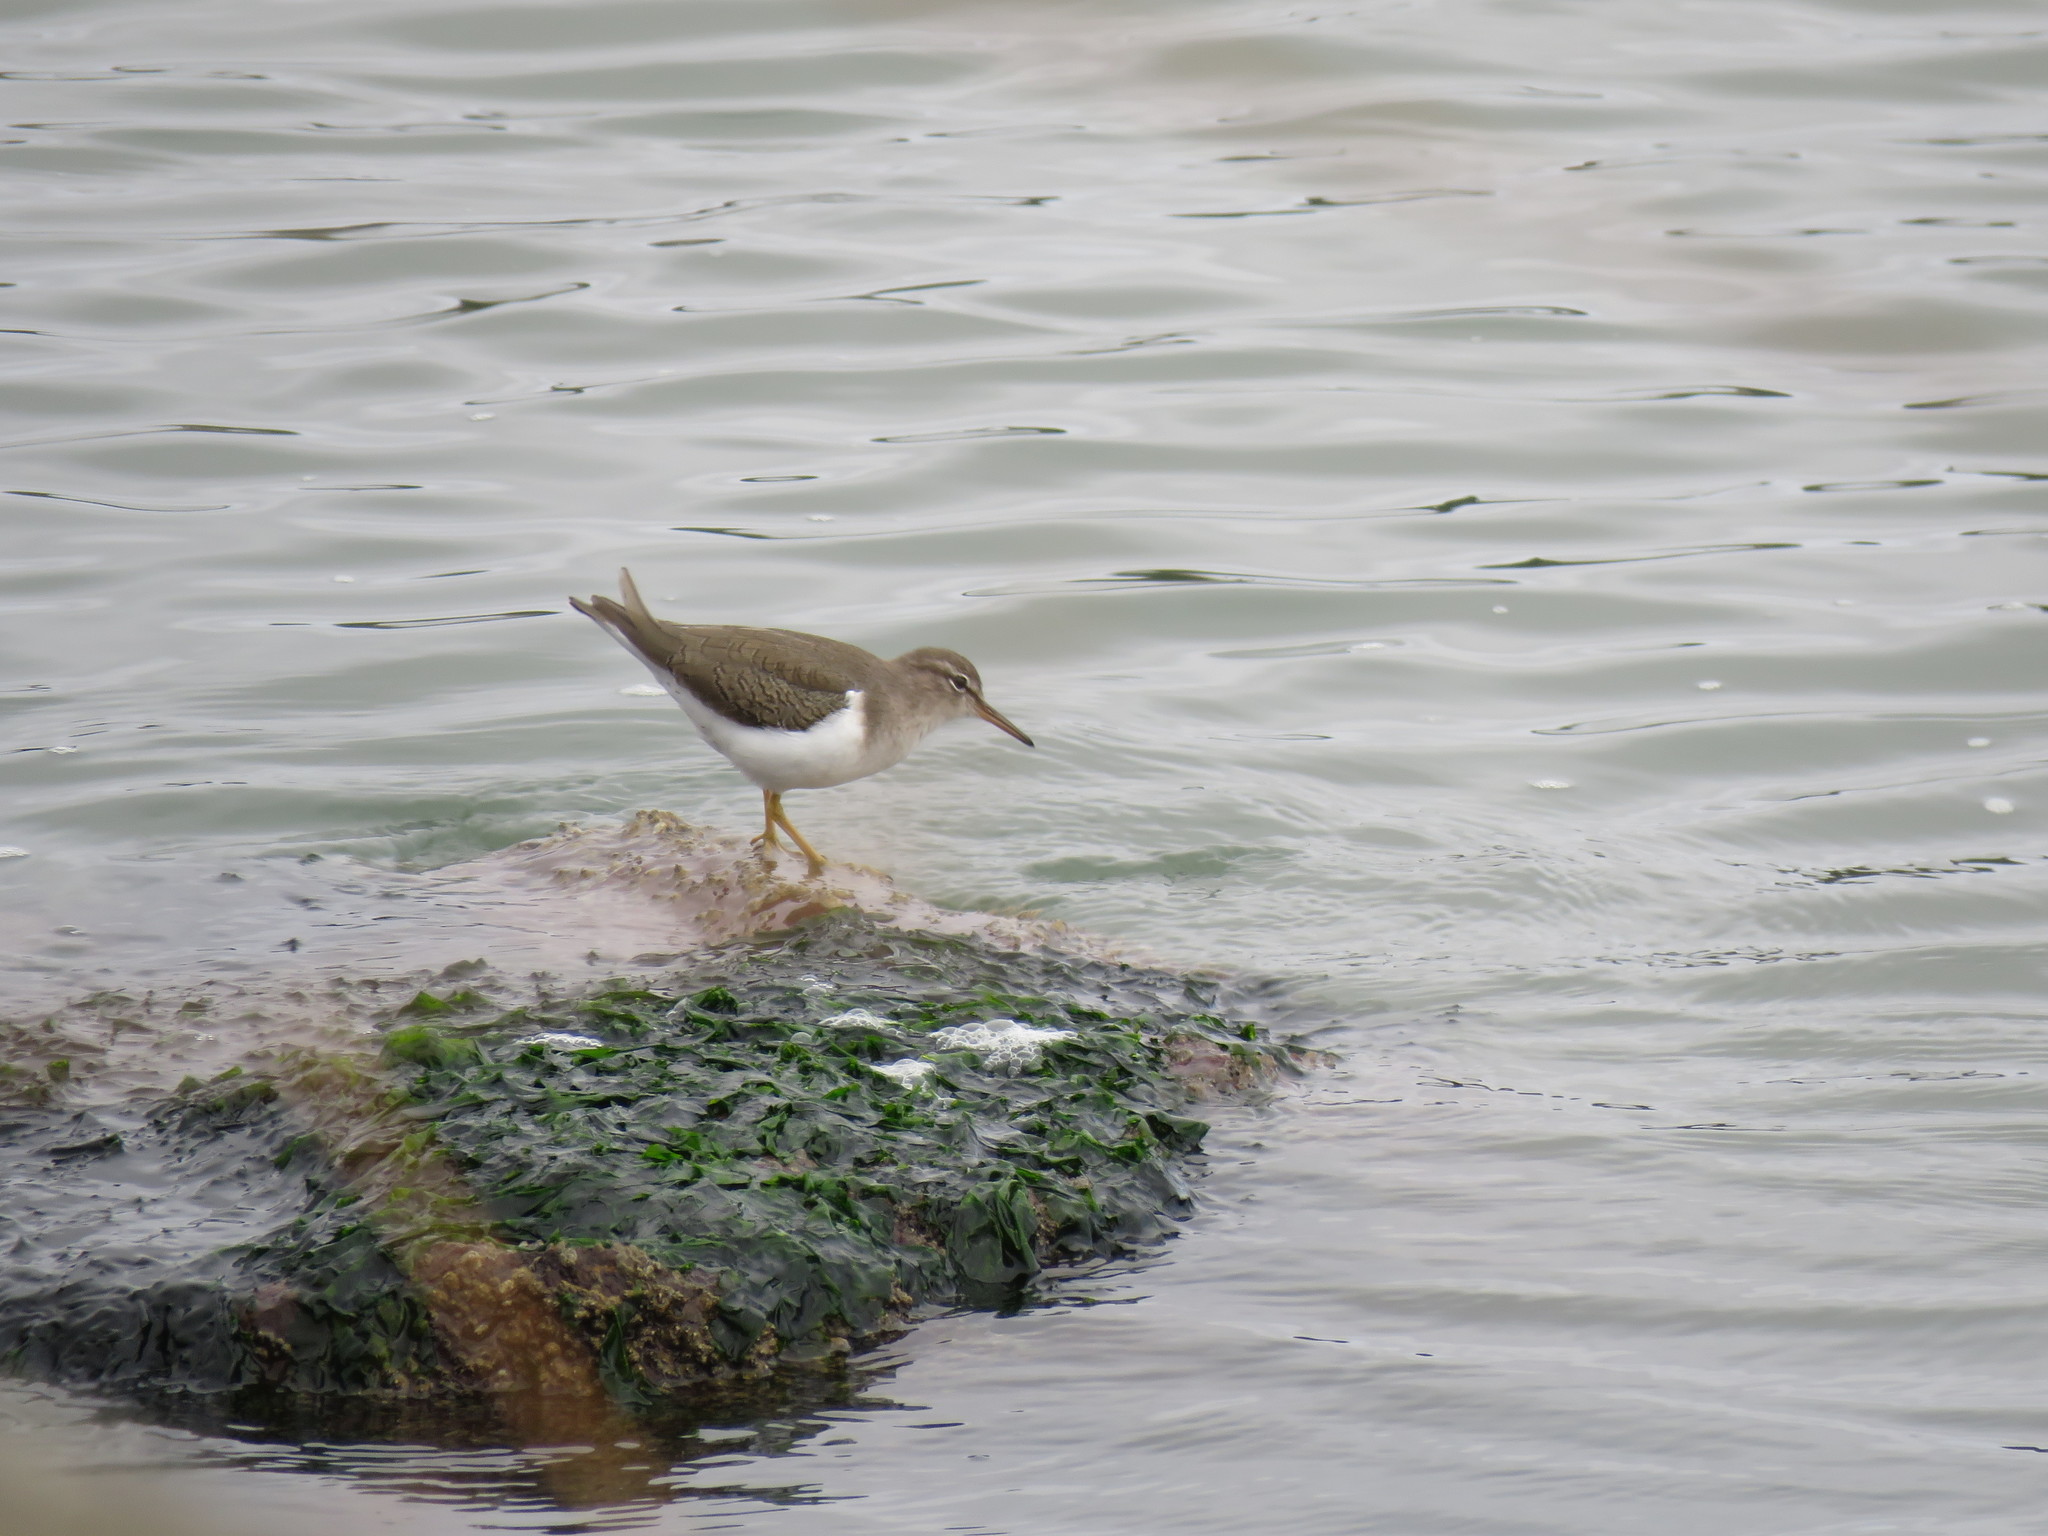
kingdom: Animalia
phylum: Chordata
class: Aves
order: Charadriiformes
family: Scolopacidae
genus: Actitis
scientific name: Actitis macularius
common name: Spotted sandpiper
